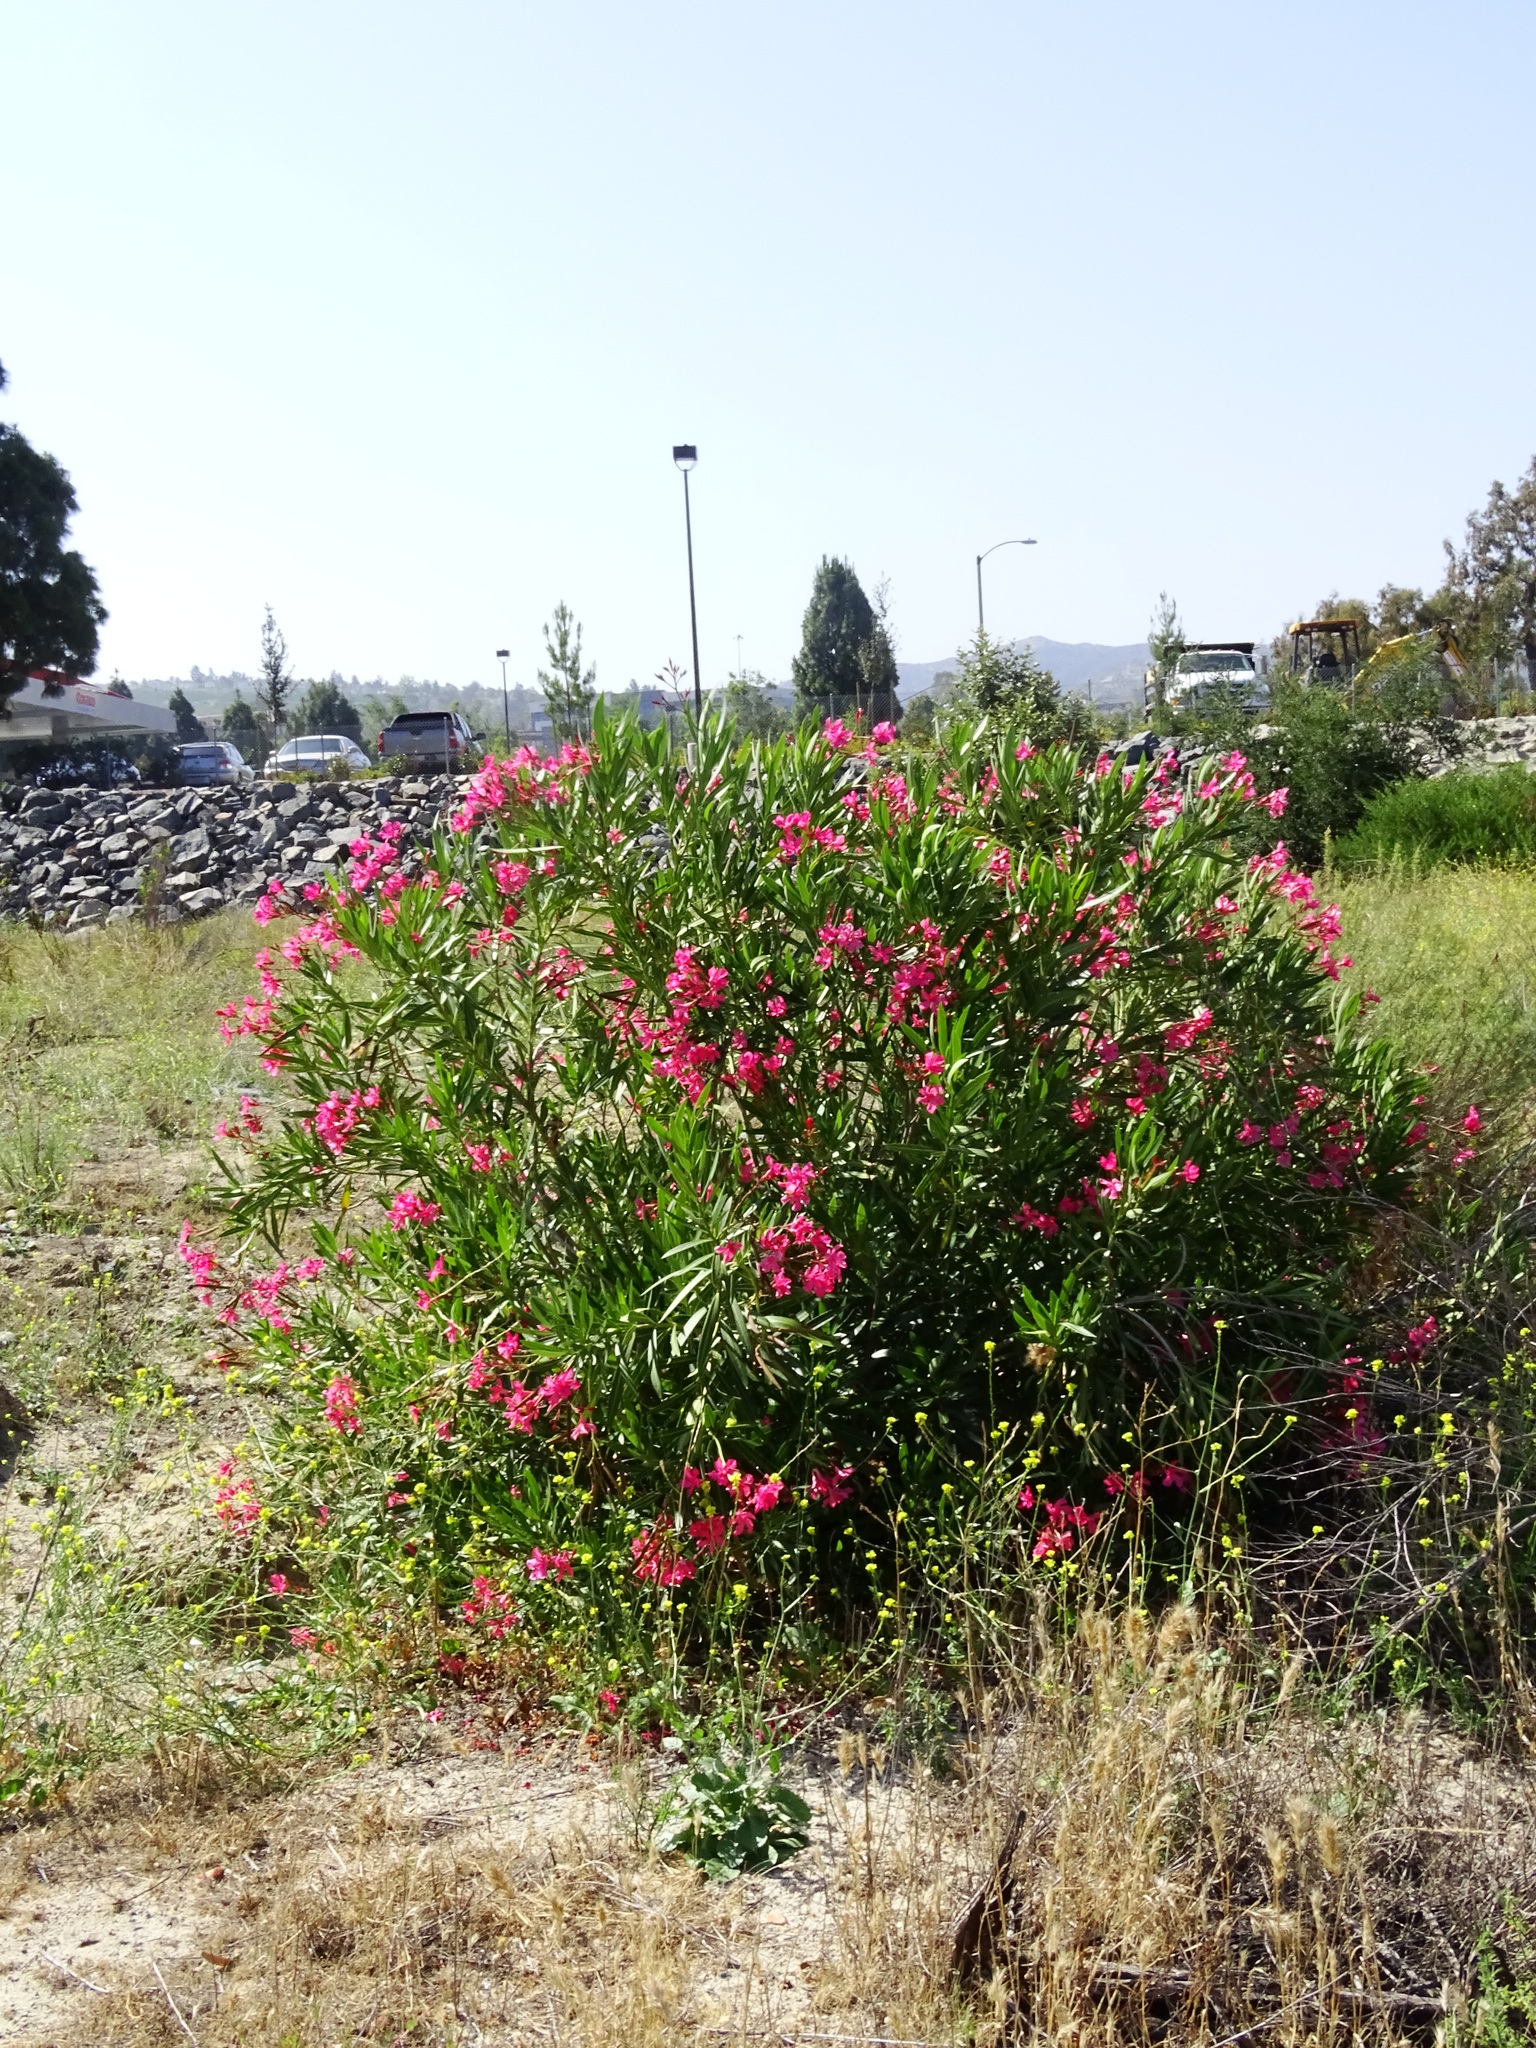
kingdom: Plantae
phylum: Tracheophyta
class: Magnoliopsida
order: Gentianales
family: Apocynaceae
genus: Nerium
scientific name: Nerium oleander
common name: Oleander
